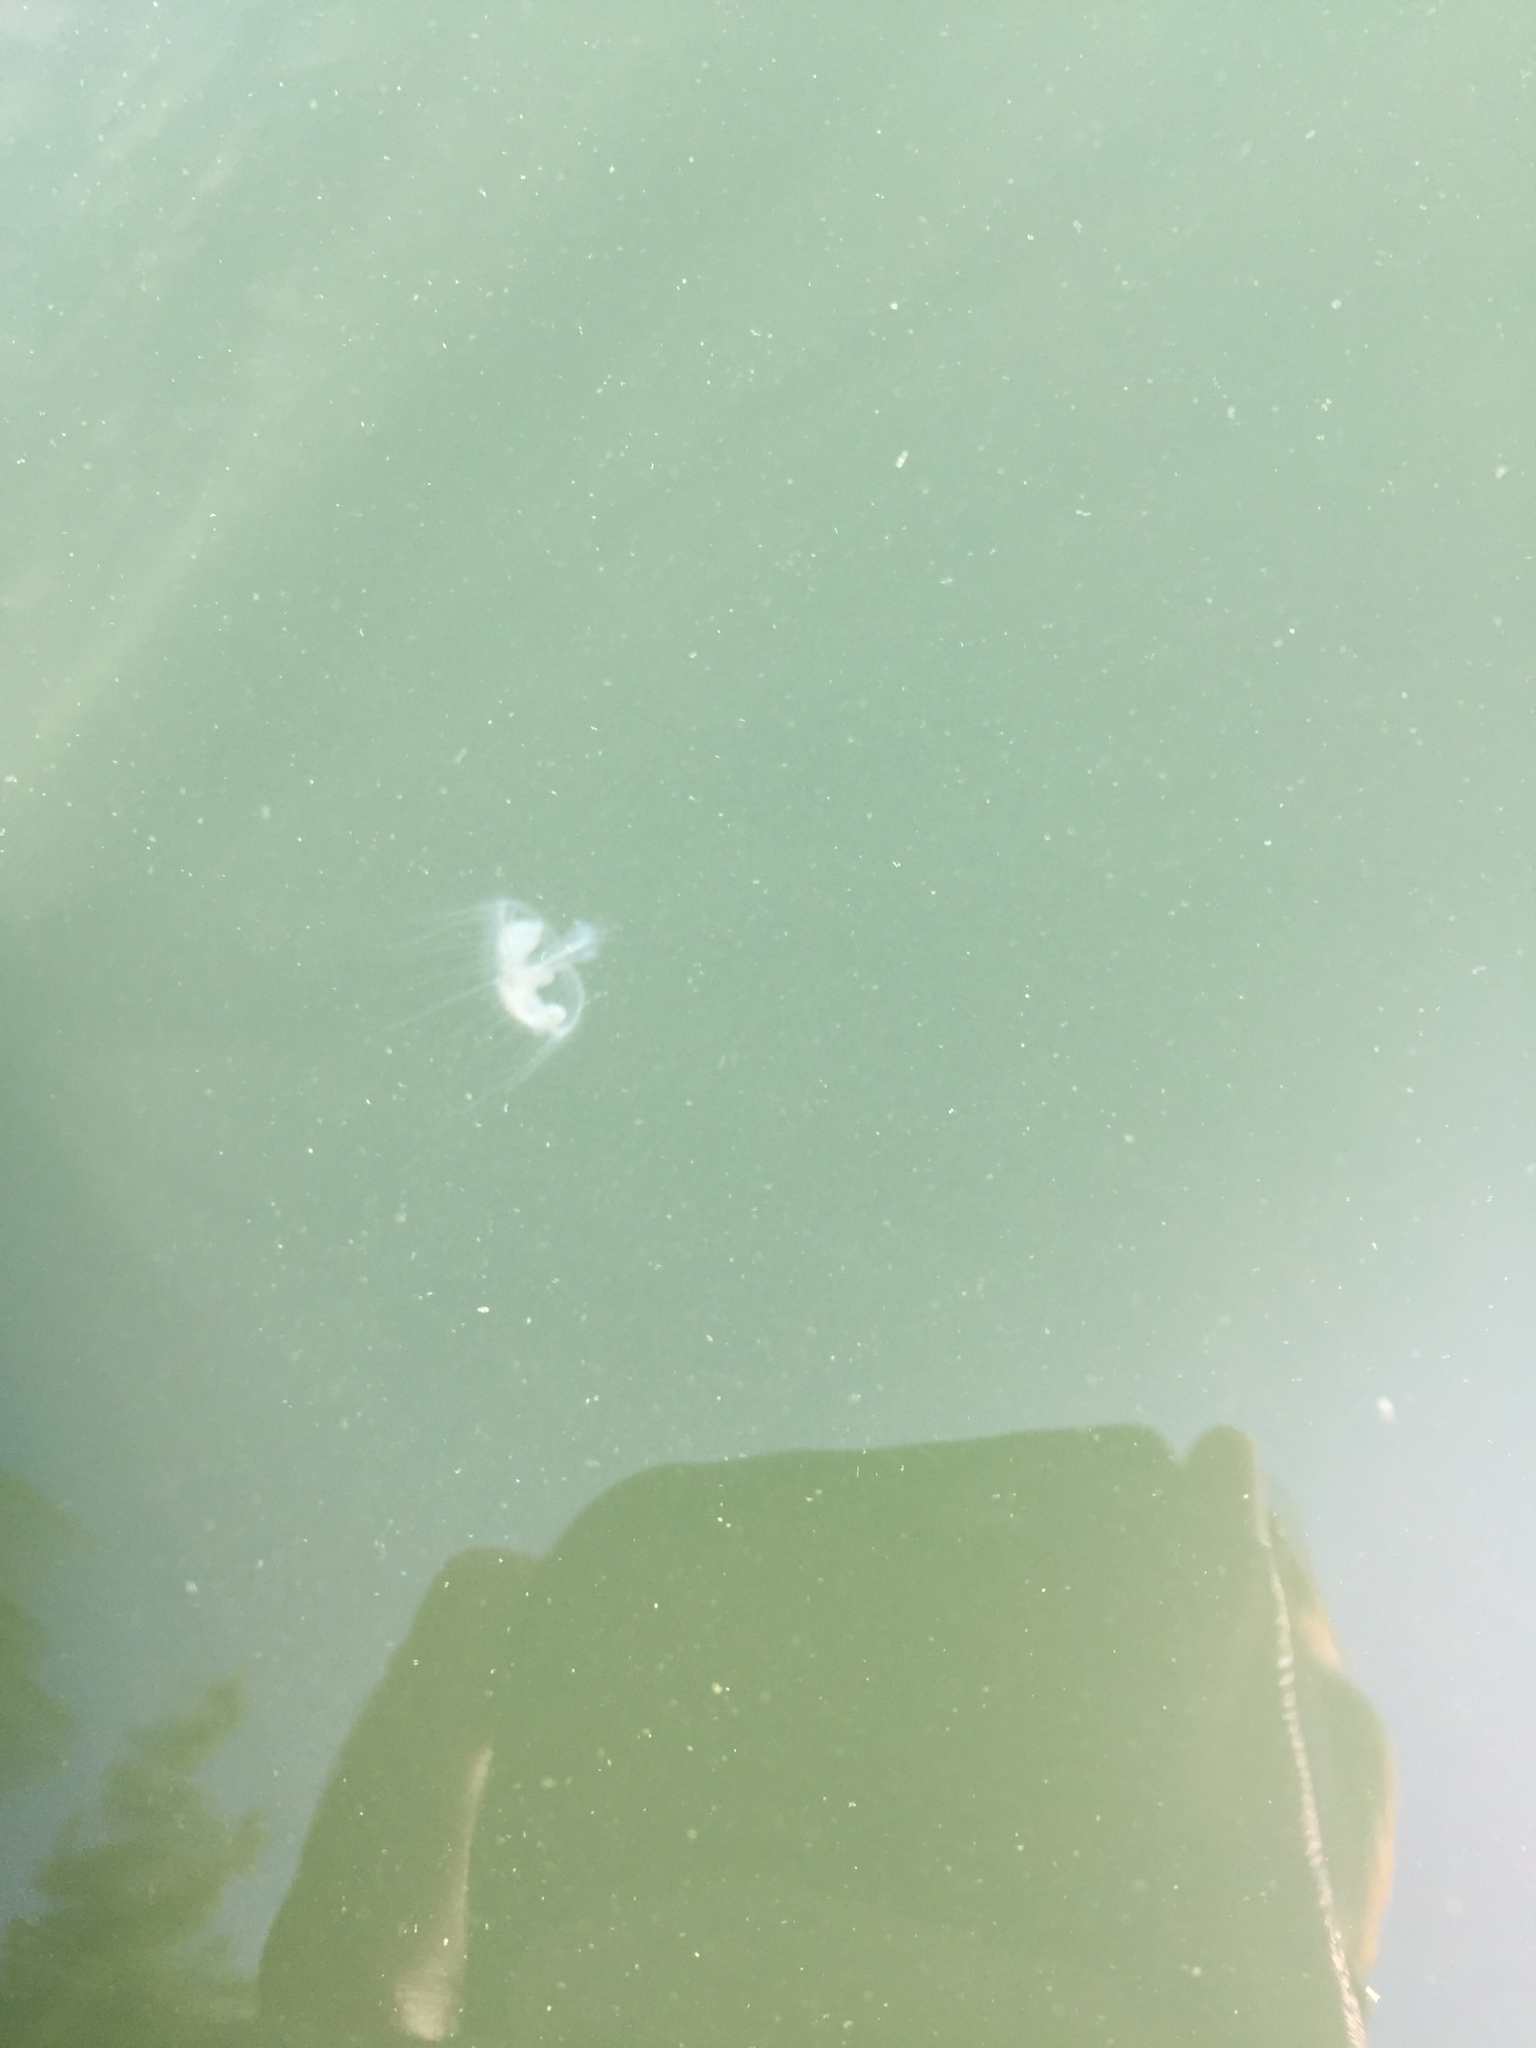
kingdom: Animalia
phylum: Cnidaria
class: Hydrozoa
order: Limnomedusae
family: Olindiidae
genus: Craspedacusta
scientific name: Craspedacusta sowerbii
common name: Freshwater jellyfish
